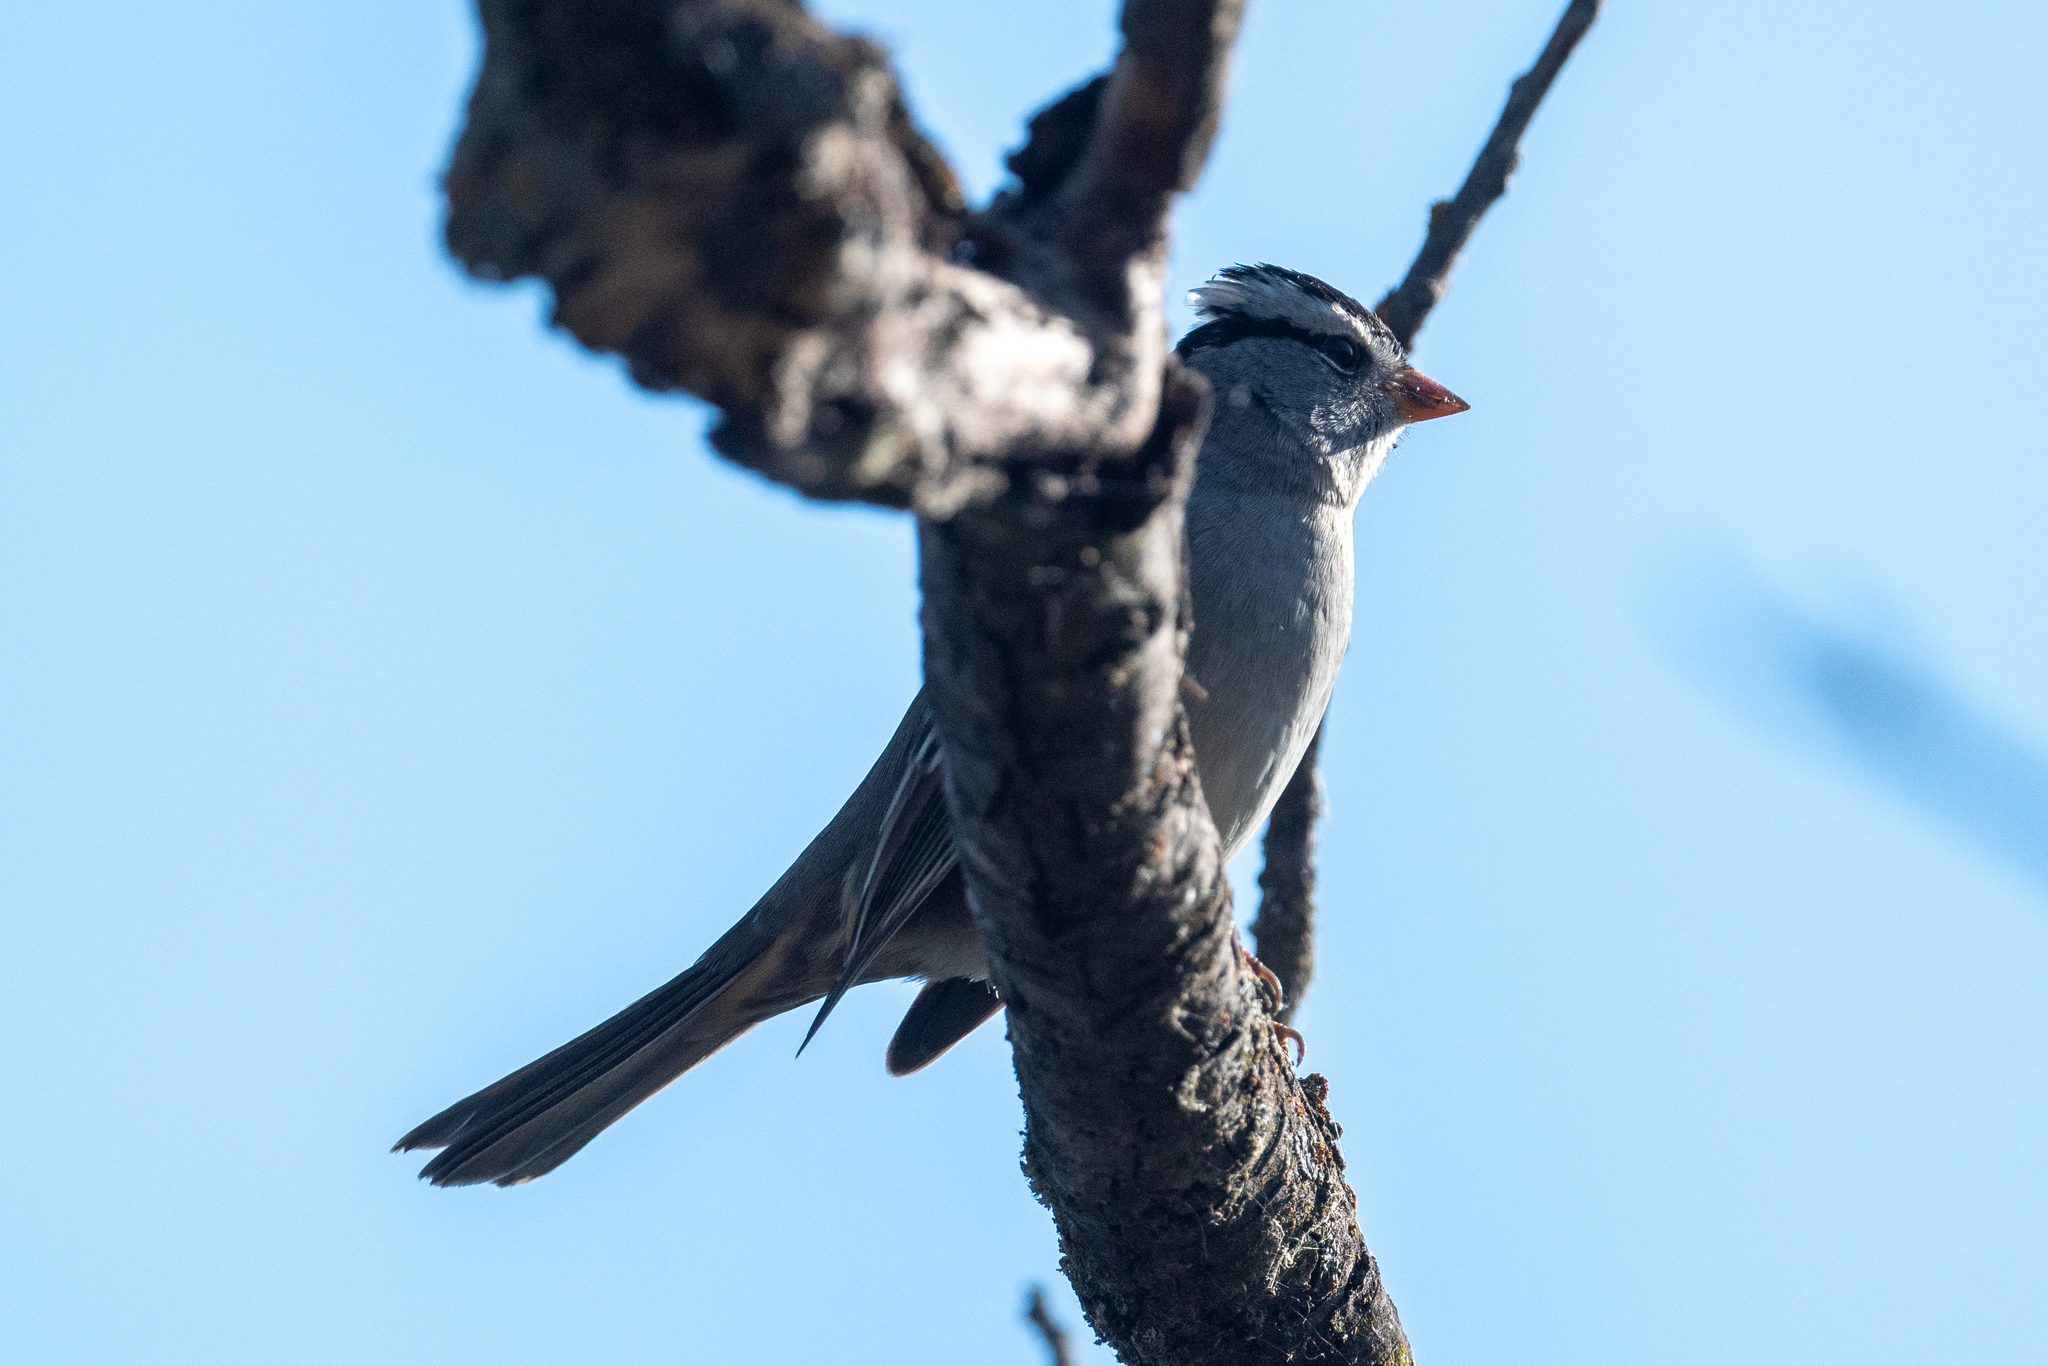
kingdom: Animalia
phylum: Chordata
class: Aves
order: Passeriformes
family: Passerellidae
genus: Zonotrichia
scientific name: Zonotrichia leucophrys
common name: White-crowned sparrow
